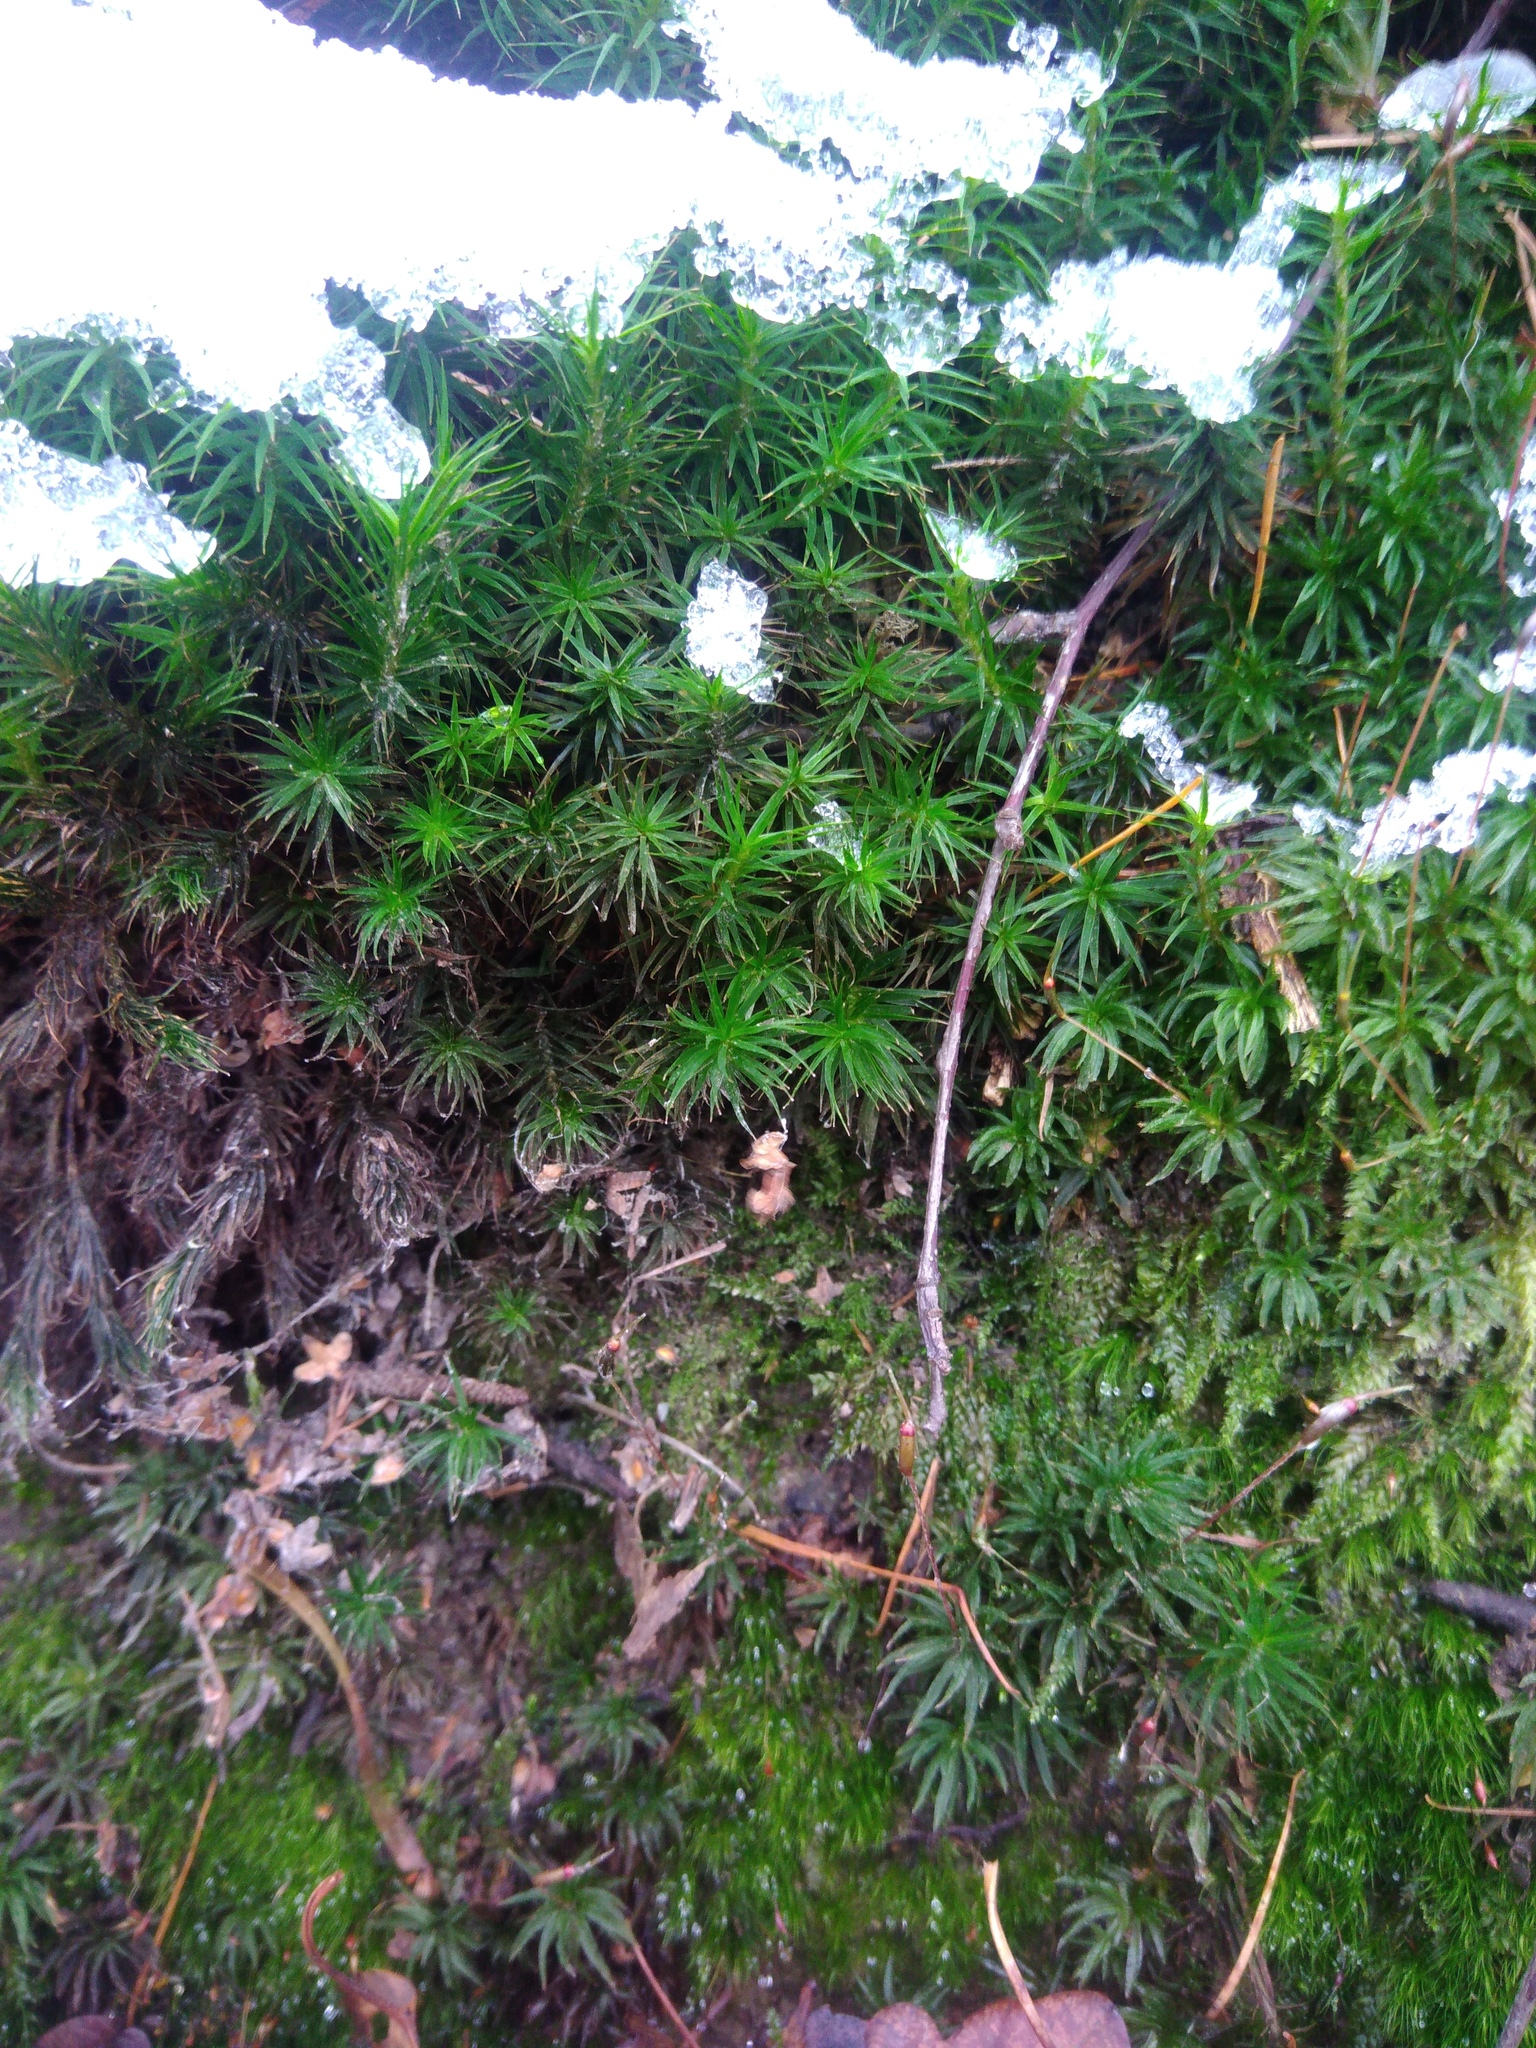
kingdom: Plantae
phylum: Bryophyta
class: Polytrichopsida
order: Polytrichales
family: Polytrichaceae
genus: Polytrichum
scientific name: Polytrichum formosum
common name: Bank haircap moss
